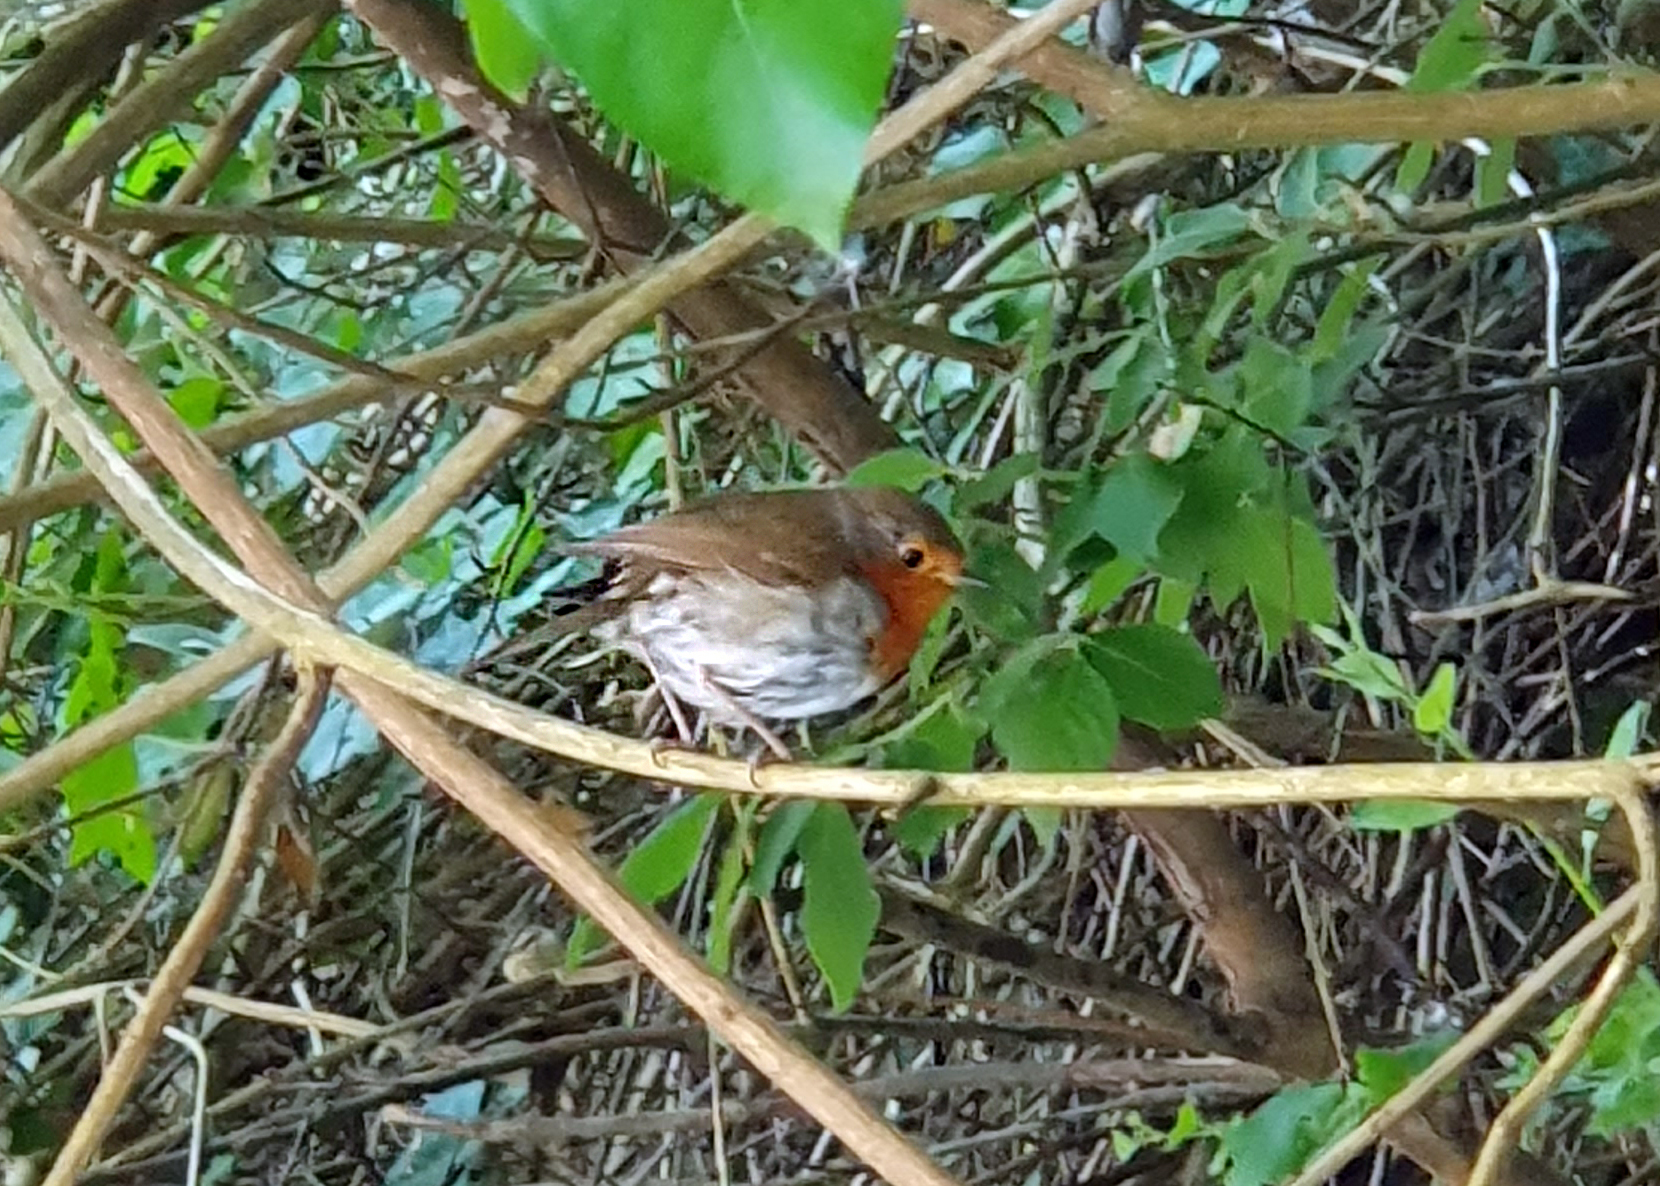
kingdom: Animalia
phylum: Chordata
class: Aves
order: Passeriformes
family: Muscicapidae
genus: Erithacus
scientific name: Erithacus rubecula
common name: European robin
